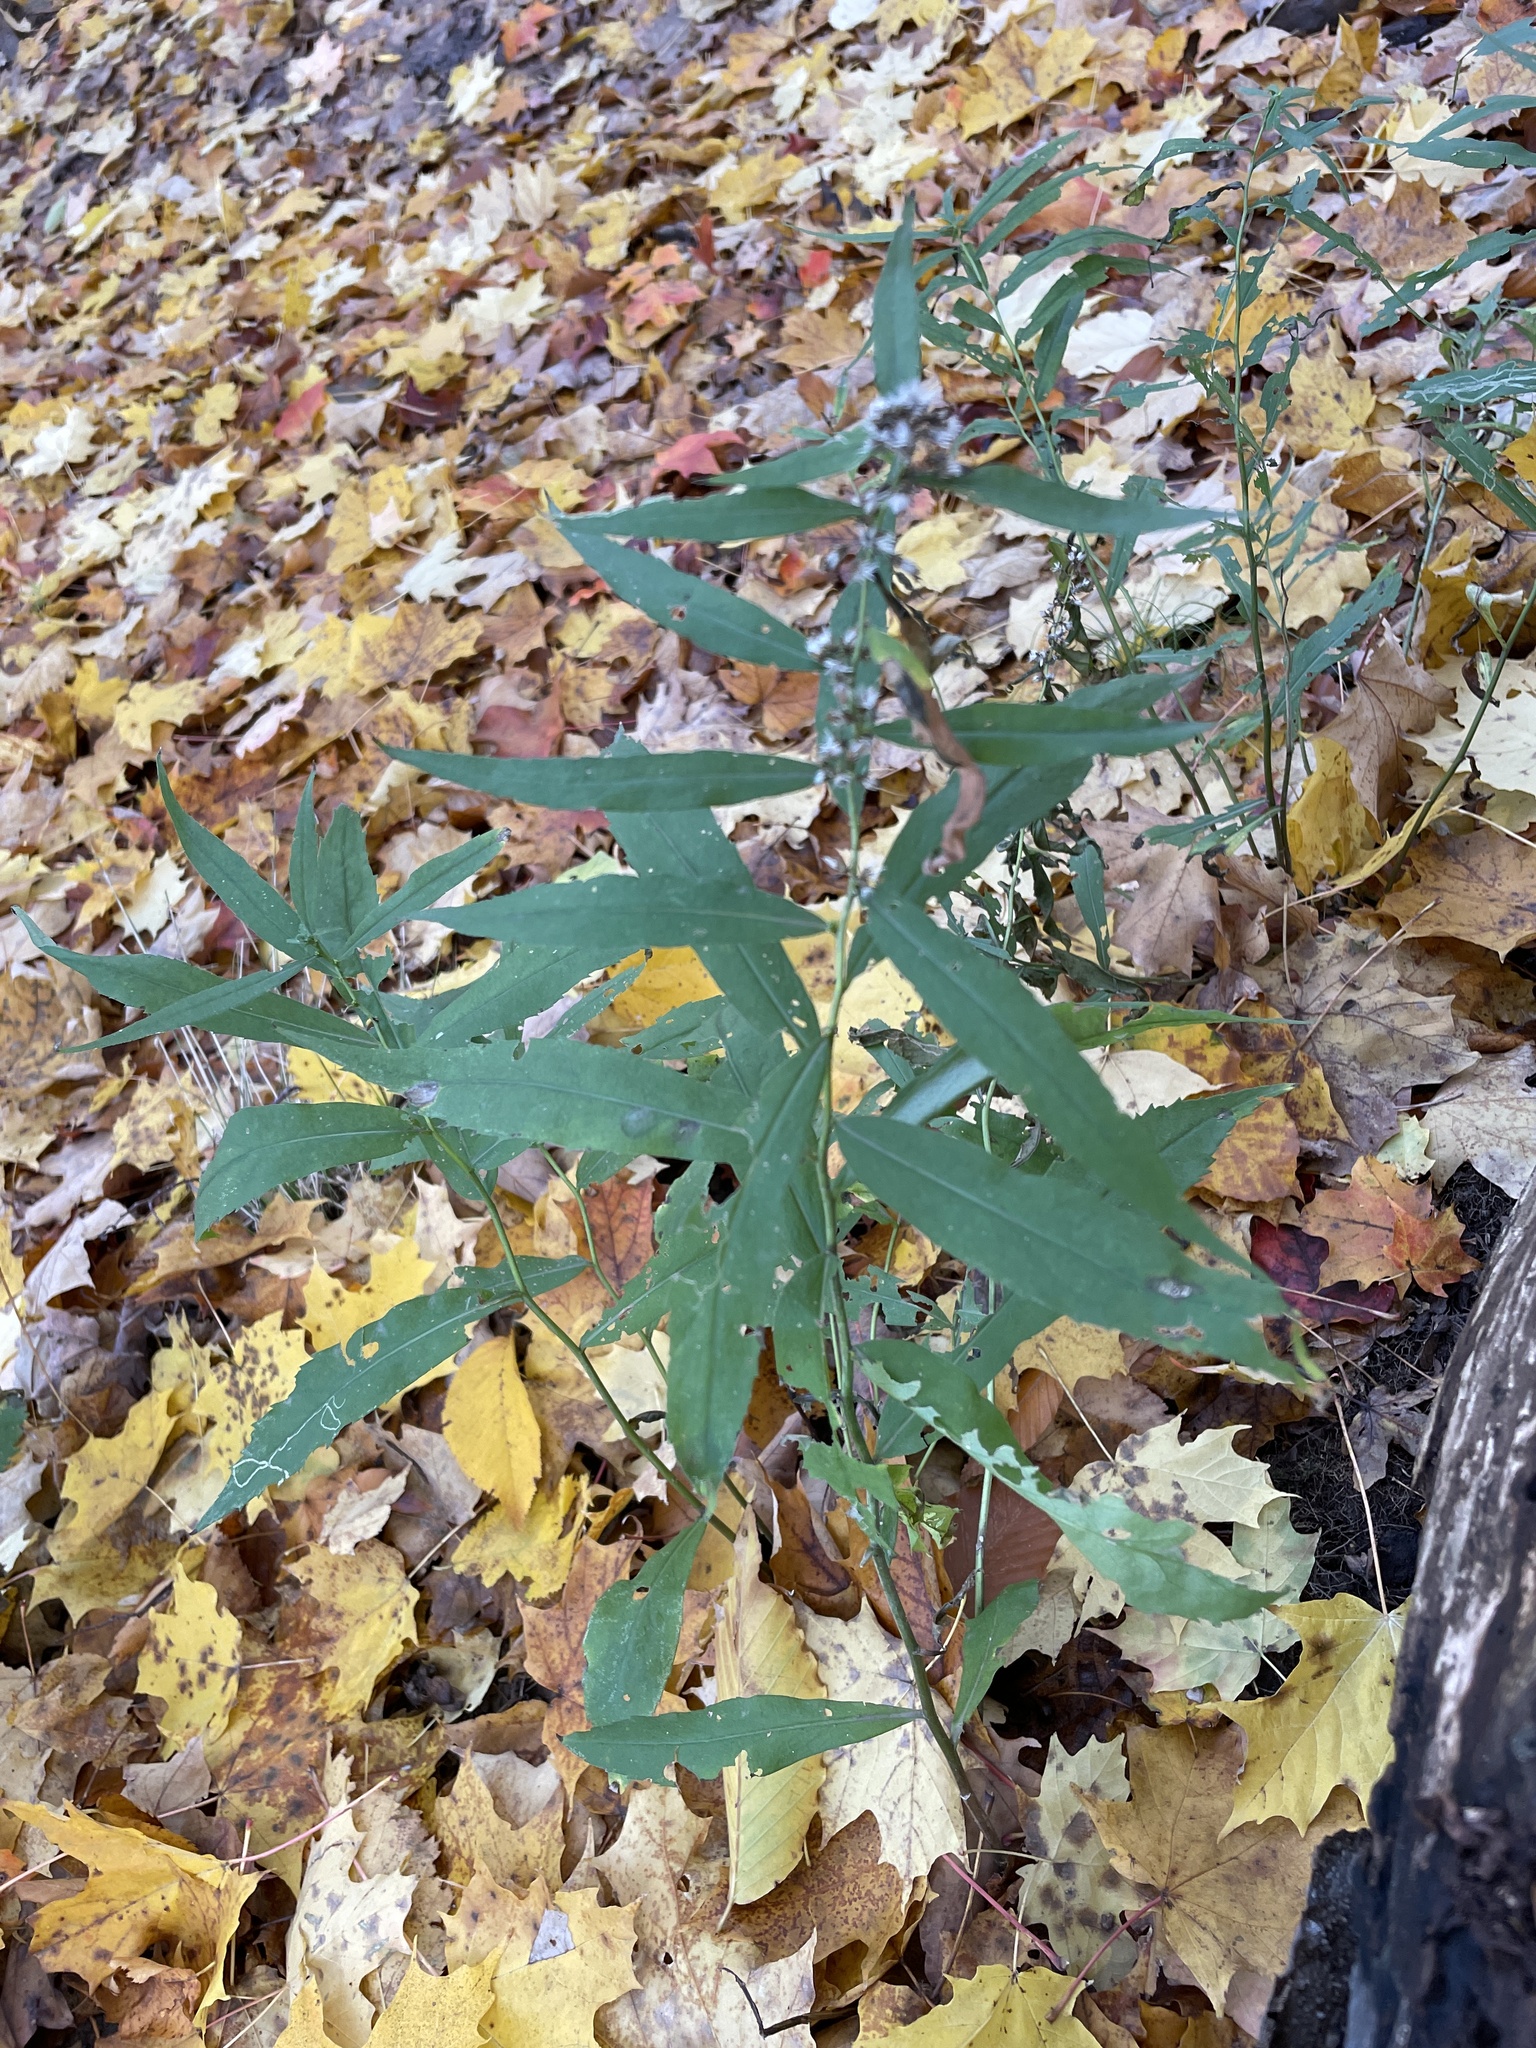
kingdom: Plantae
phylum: Tracheophyta
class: Magnoliopsida
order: Asterales
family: Asteraceae
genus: Solidago
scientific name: Solidago caesia
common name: Woodland goldenrod
